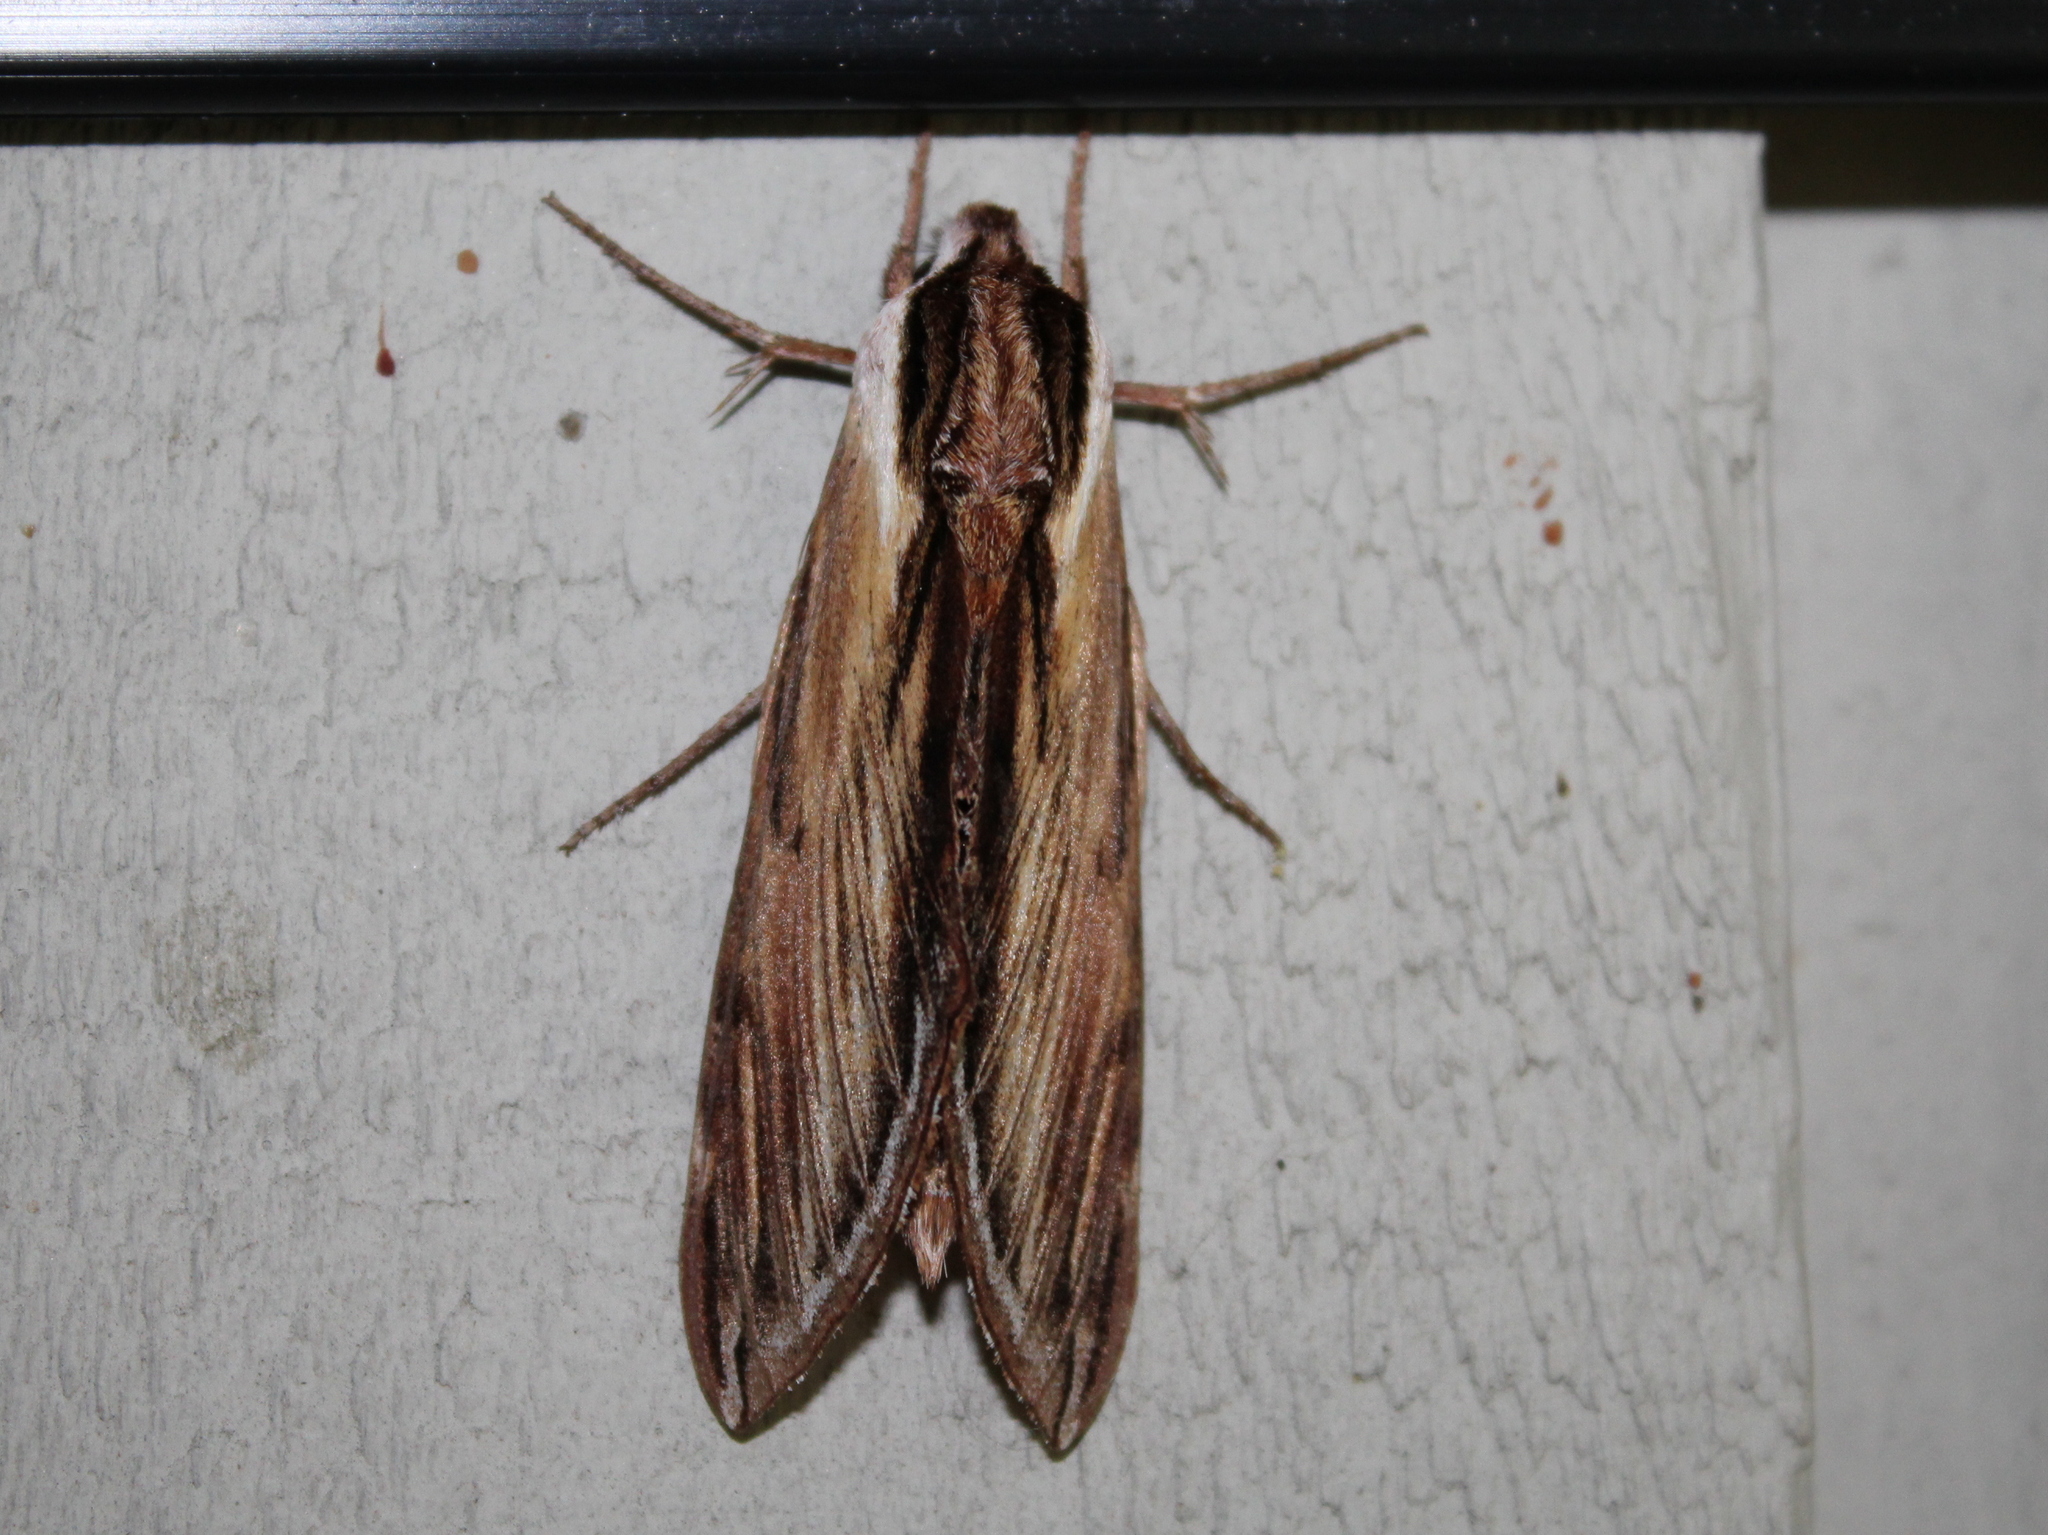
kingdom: Animalia
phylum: Arthropoda
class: Insecta
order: Lepidoptera
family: Sphingidae
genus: Sphinx
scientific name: Sphinx kalmiae
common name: Laurel sphinx
